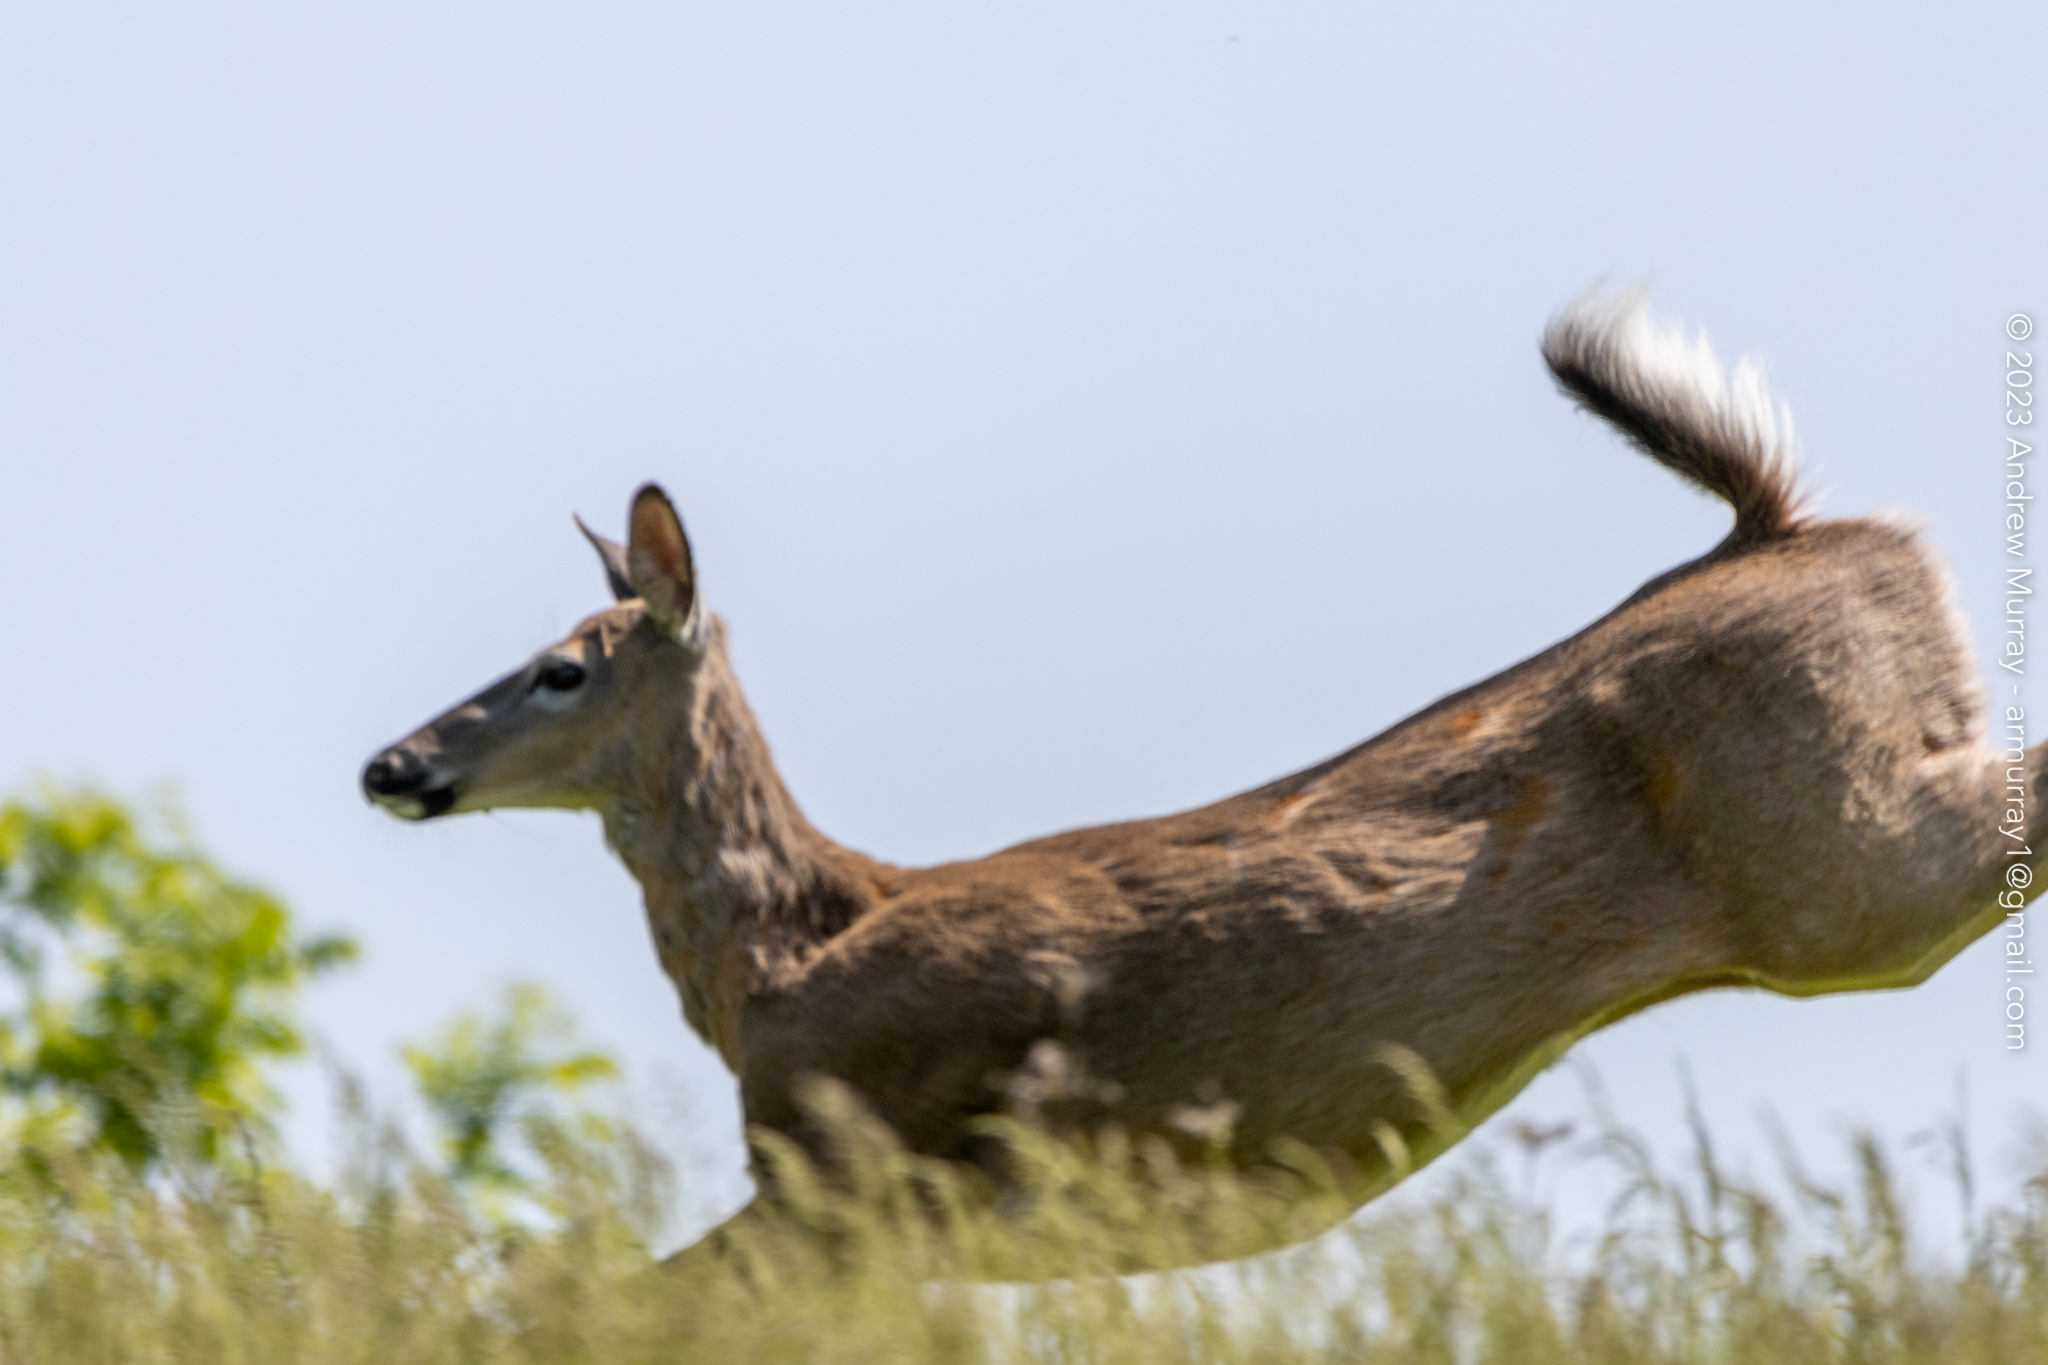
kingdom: Animalia
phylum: Chordata
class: Mammalia
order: Artiodactyla
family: Cervidae
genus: Odocoileus
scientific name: Odocoileus virginianus
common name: White-tailed deer
